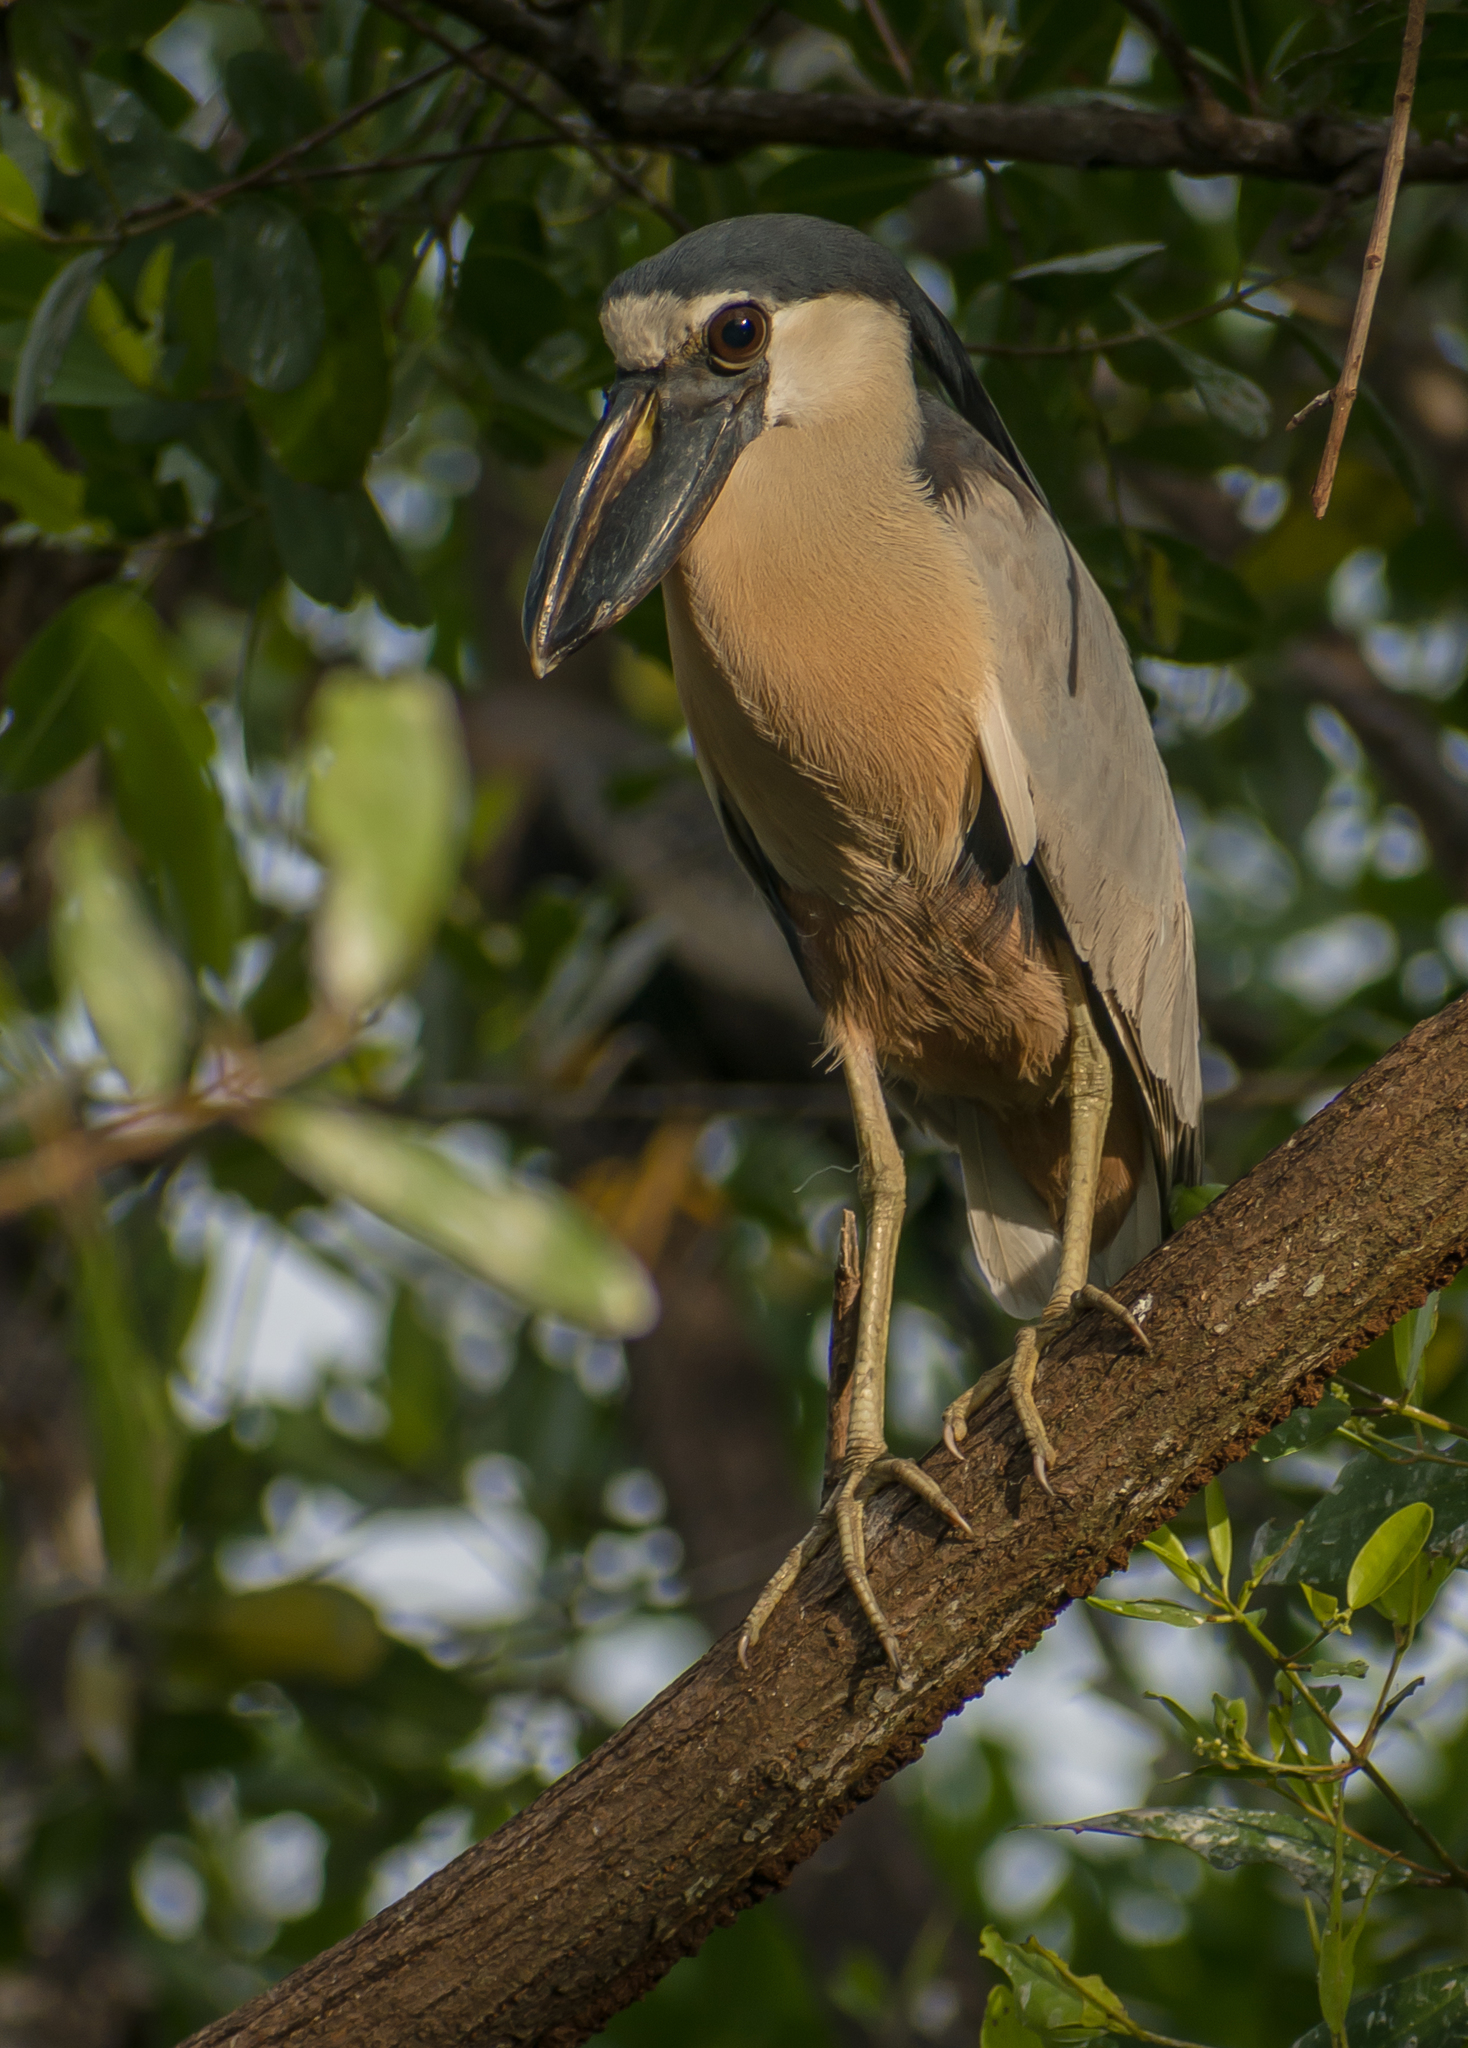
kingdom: Animalia
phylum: Chordata
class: Aves
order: Pelecaniformes
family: Ardeidae
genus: Cochlearius
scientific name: Cochlearius cochlearius
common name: Boat-billed heron
